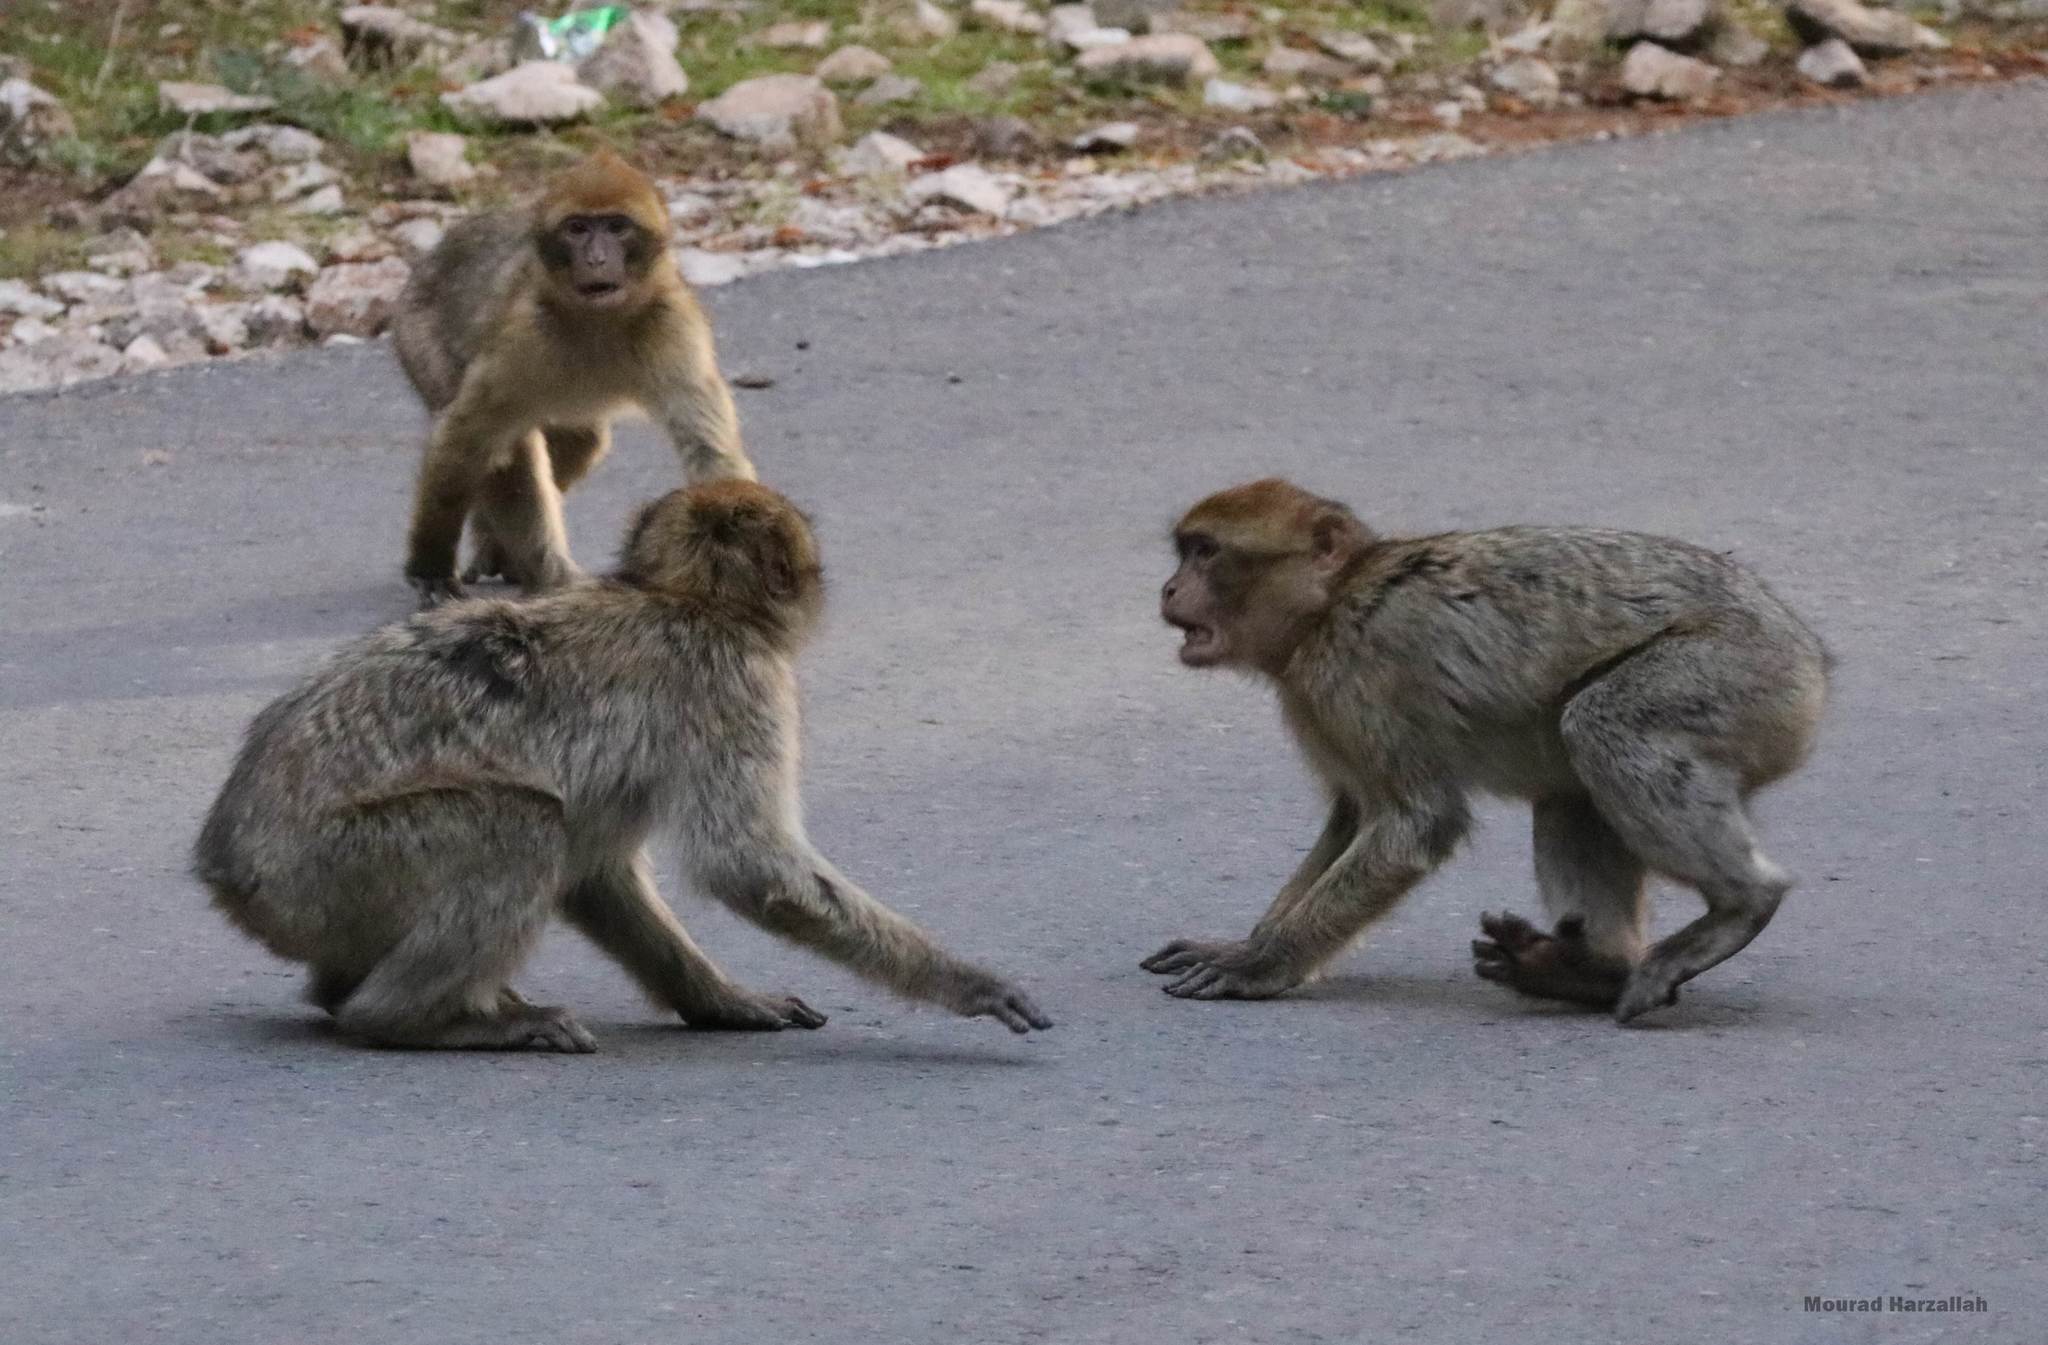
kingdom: Animalia
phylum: Chordata
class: Mammalia
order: Primates
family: Cercopithecidae
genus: Macaca
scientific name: Macaca sylvanus
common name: Barbary macaque
